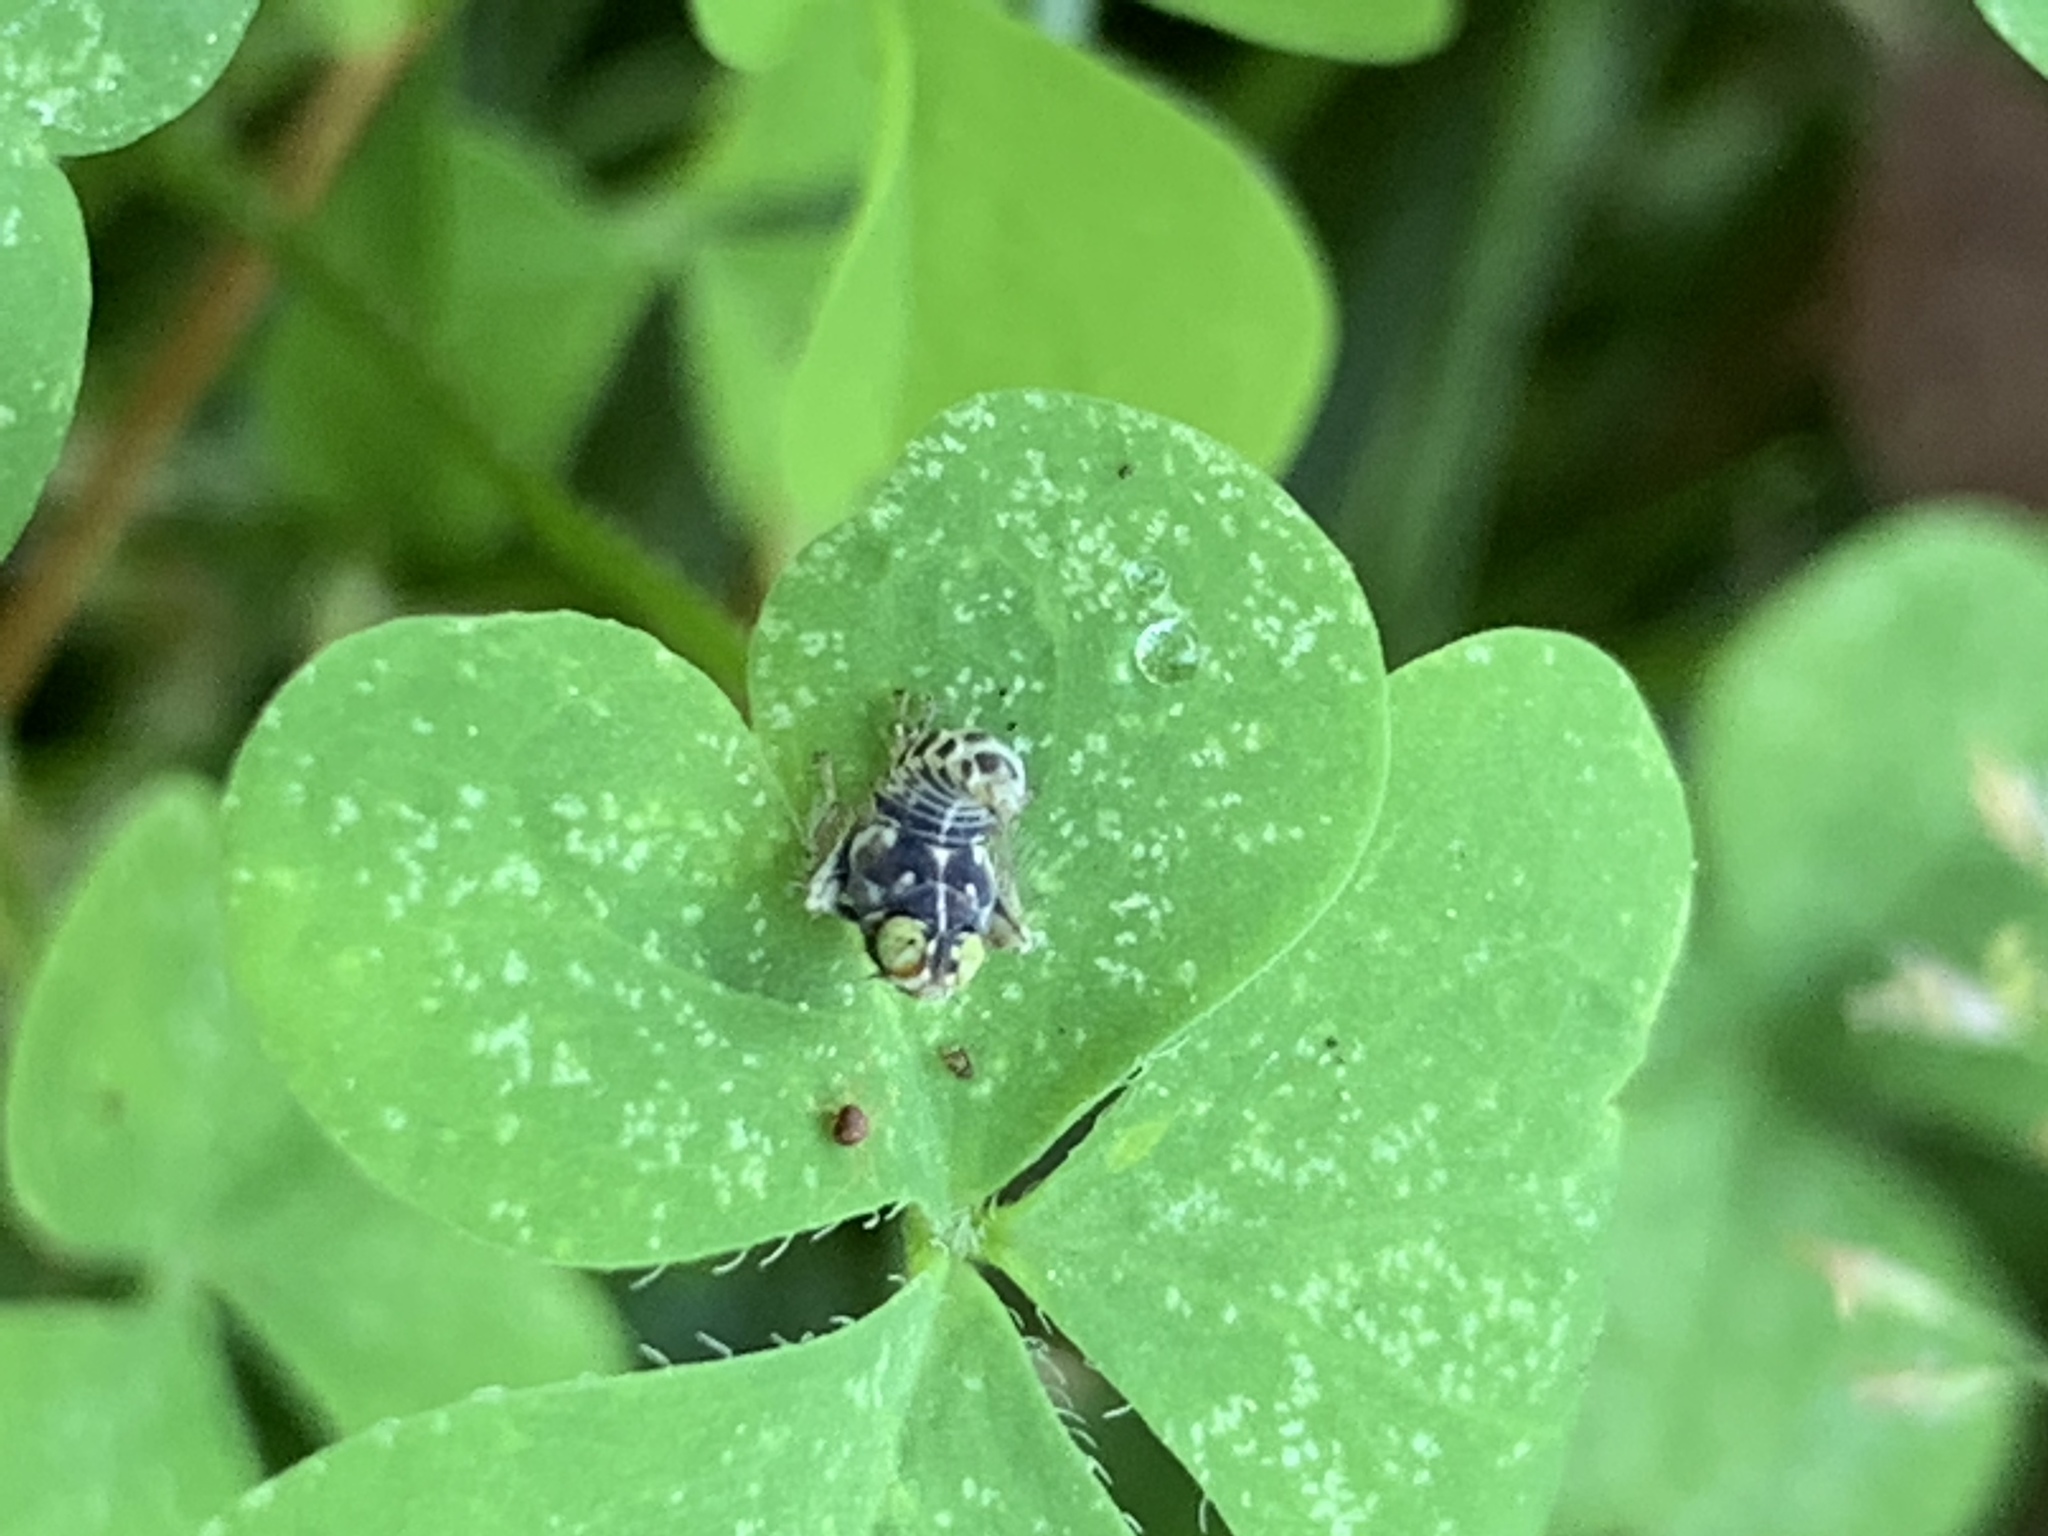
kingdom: Animalia
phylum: Arthropoda
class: Insecta
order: Hemiptera
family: Cicadellidae
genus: Jikradia
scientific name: Jikradia olitoria
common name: Coppery leafhopper
